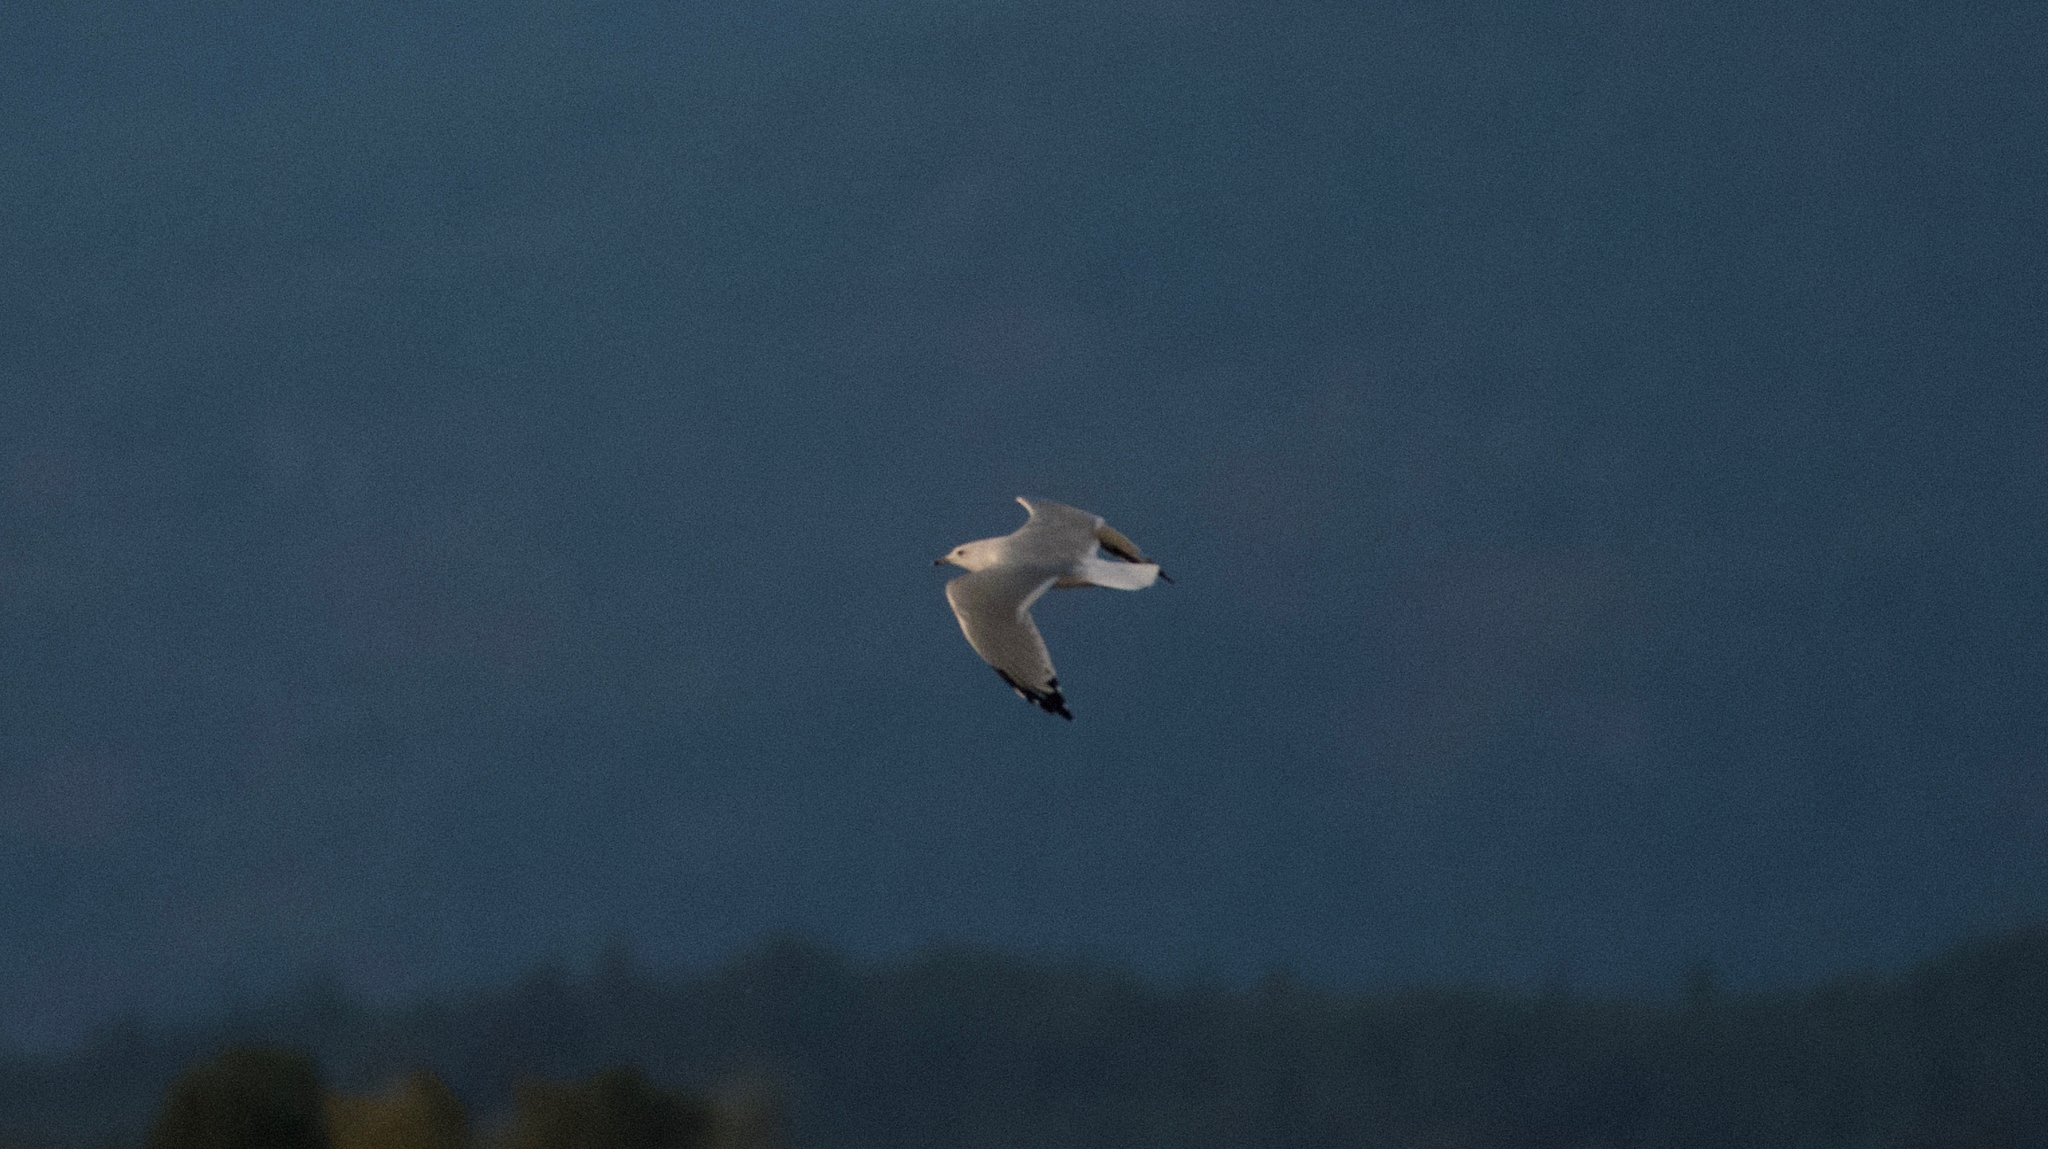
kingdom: Animalia
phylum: Chordata
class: Aves
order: Charadriiformes
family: Laridae
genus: Larus
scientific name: Larus delawarensis
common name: Ring-billed gull
